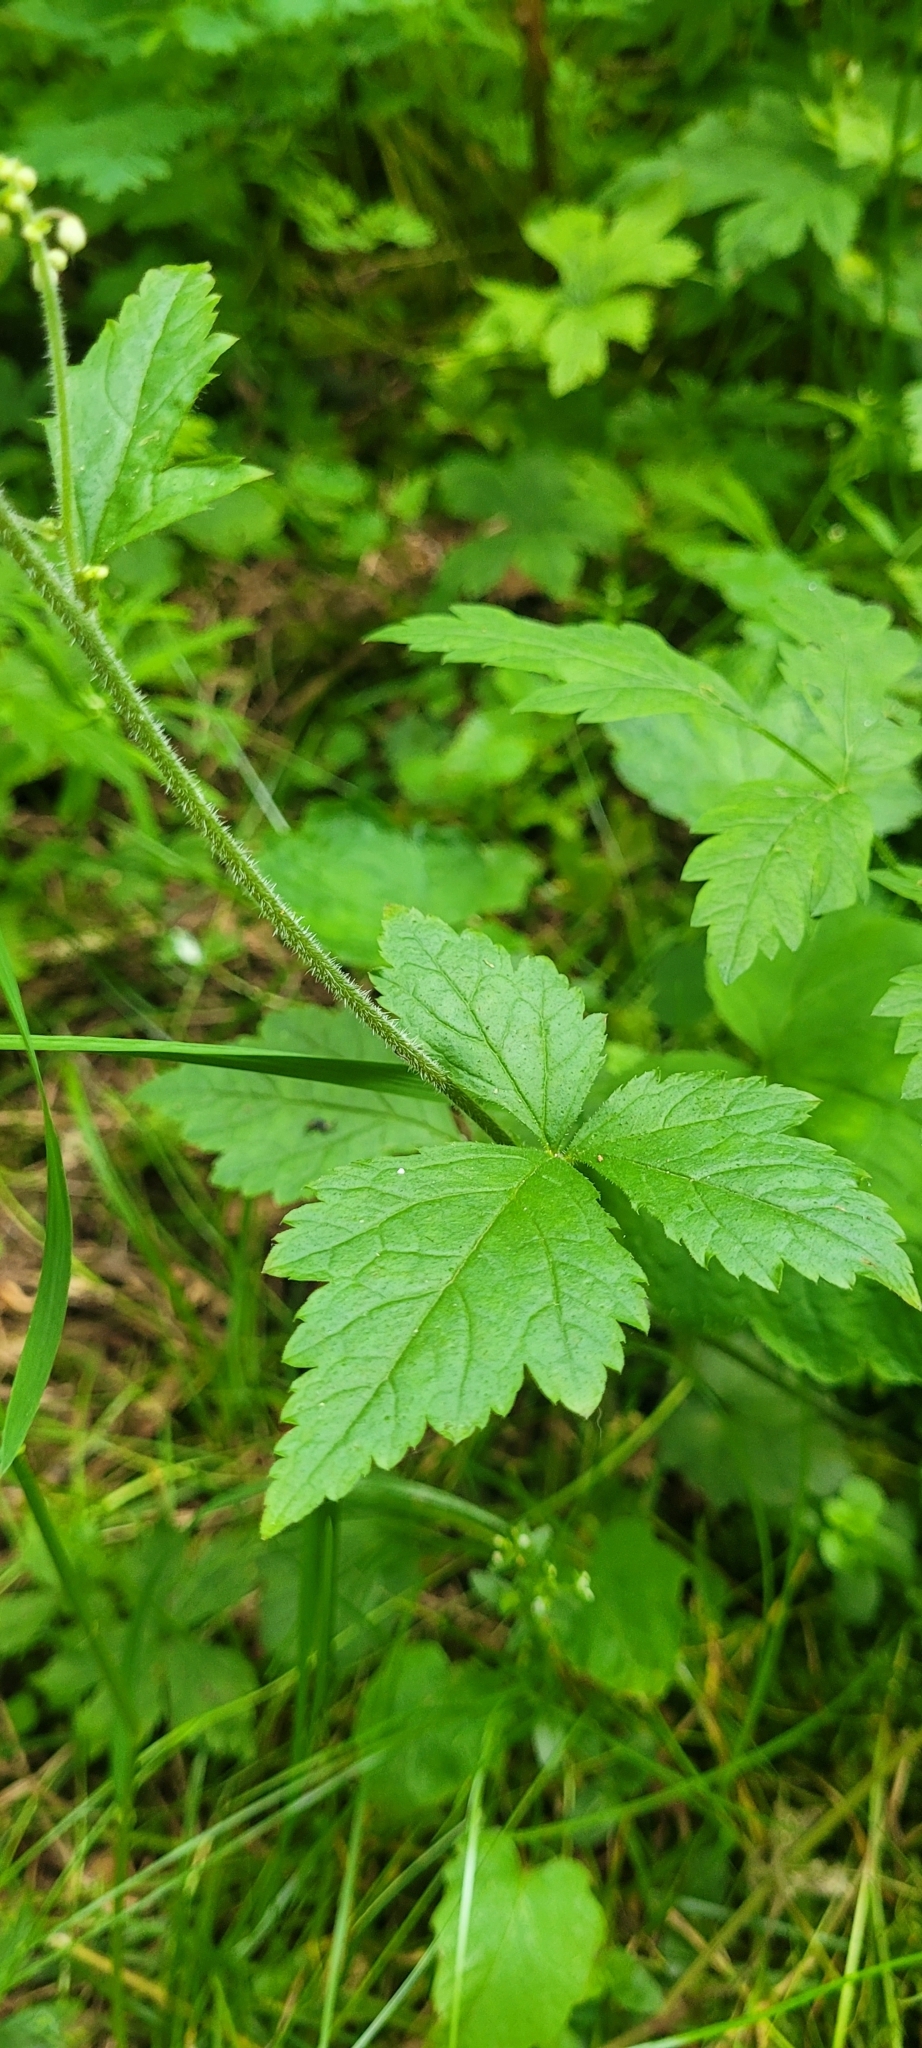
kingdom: Plantae
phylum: Tracheophyta
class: Magnoliopsida
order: Saxifragales
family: Saxifragaceae
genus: Tiarella
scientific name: Tiarella trifoliata
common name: Sugar-scoop
